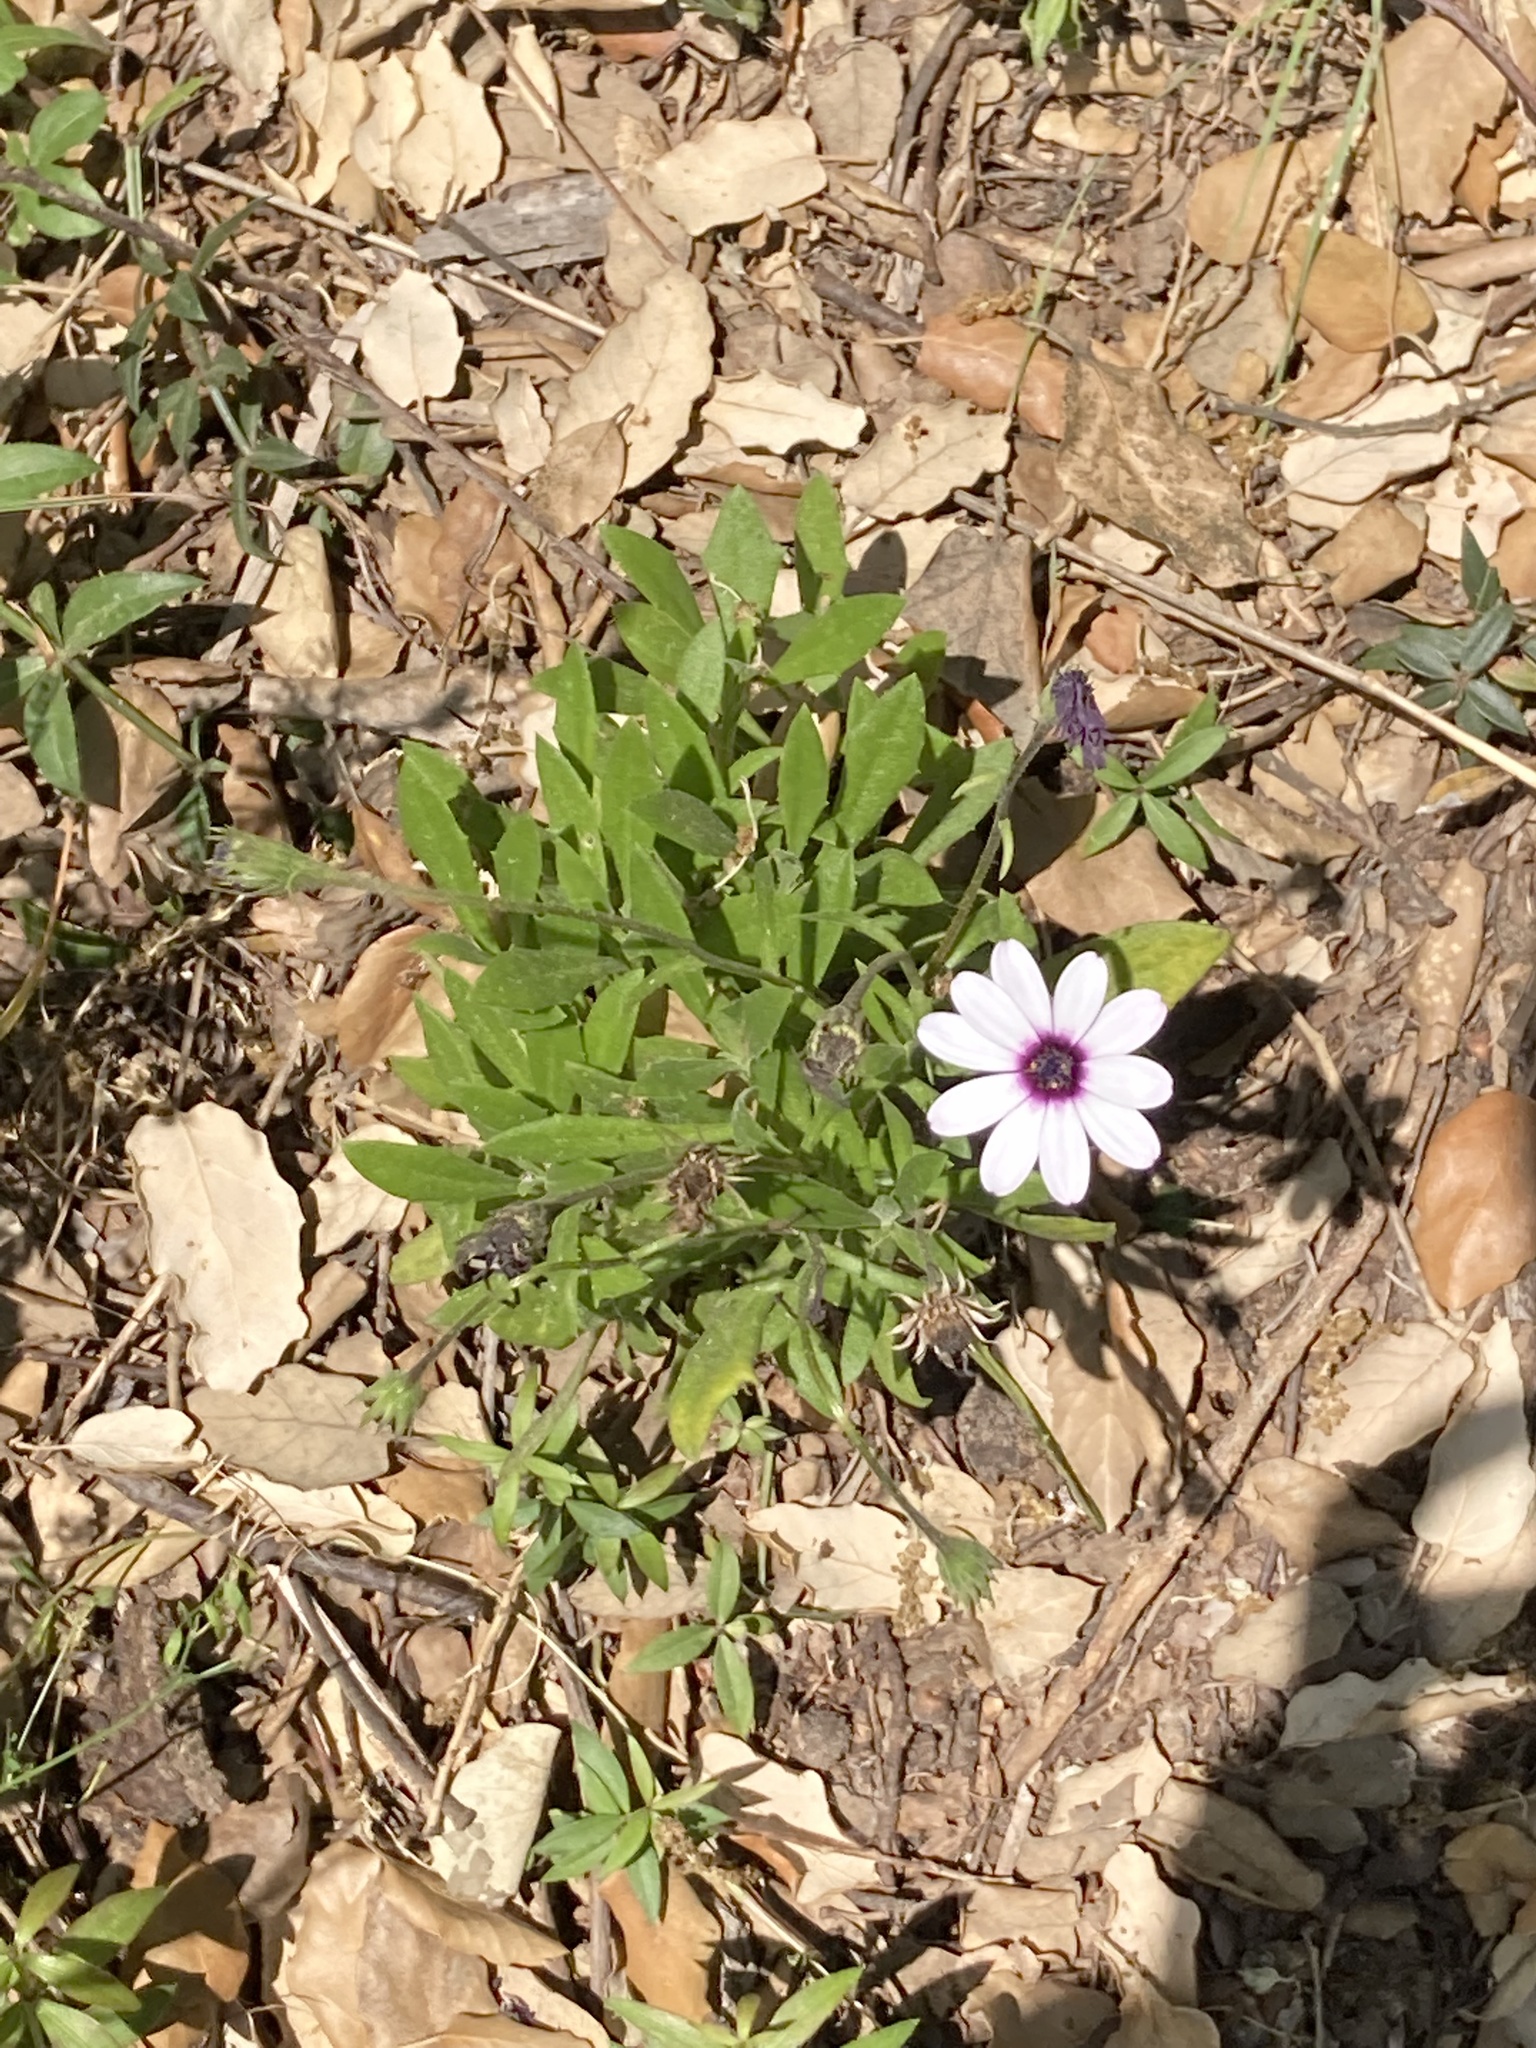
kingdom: Plantae
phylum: Tracheophyta
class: Magnoliopsida
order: Asterales
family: Asteraceae
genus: Dimorphotheca
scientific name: Dimorphotheca ecklonis
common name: Vanstaden's river daisy
